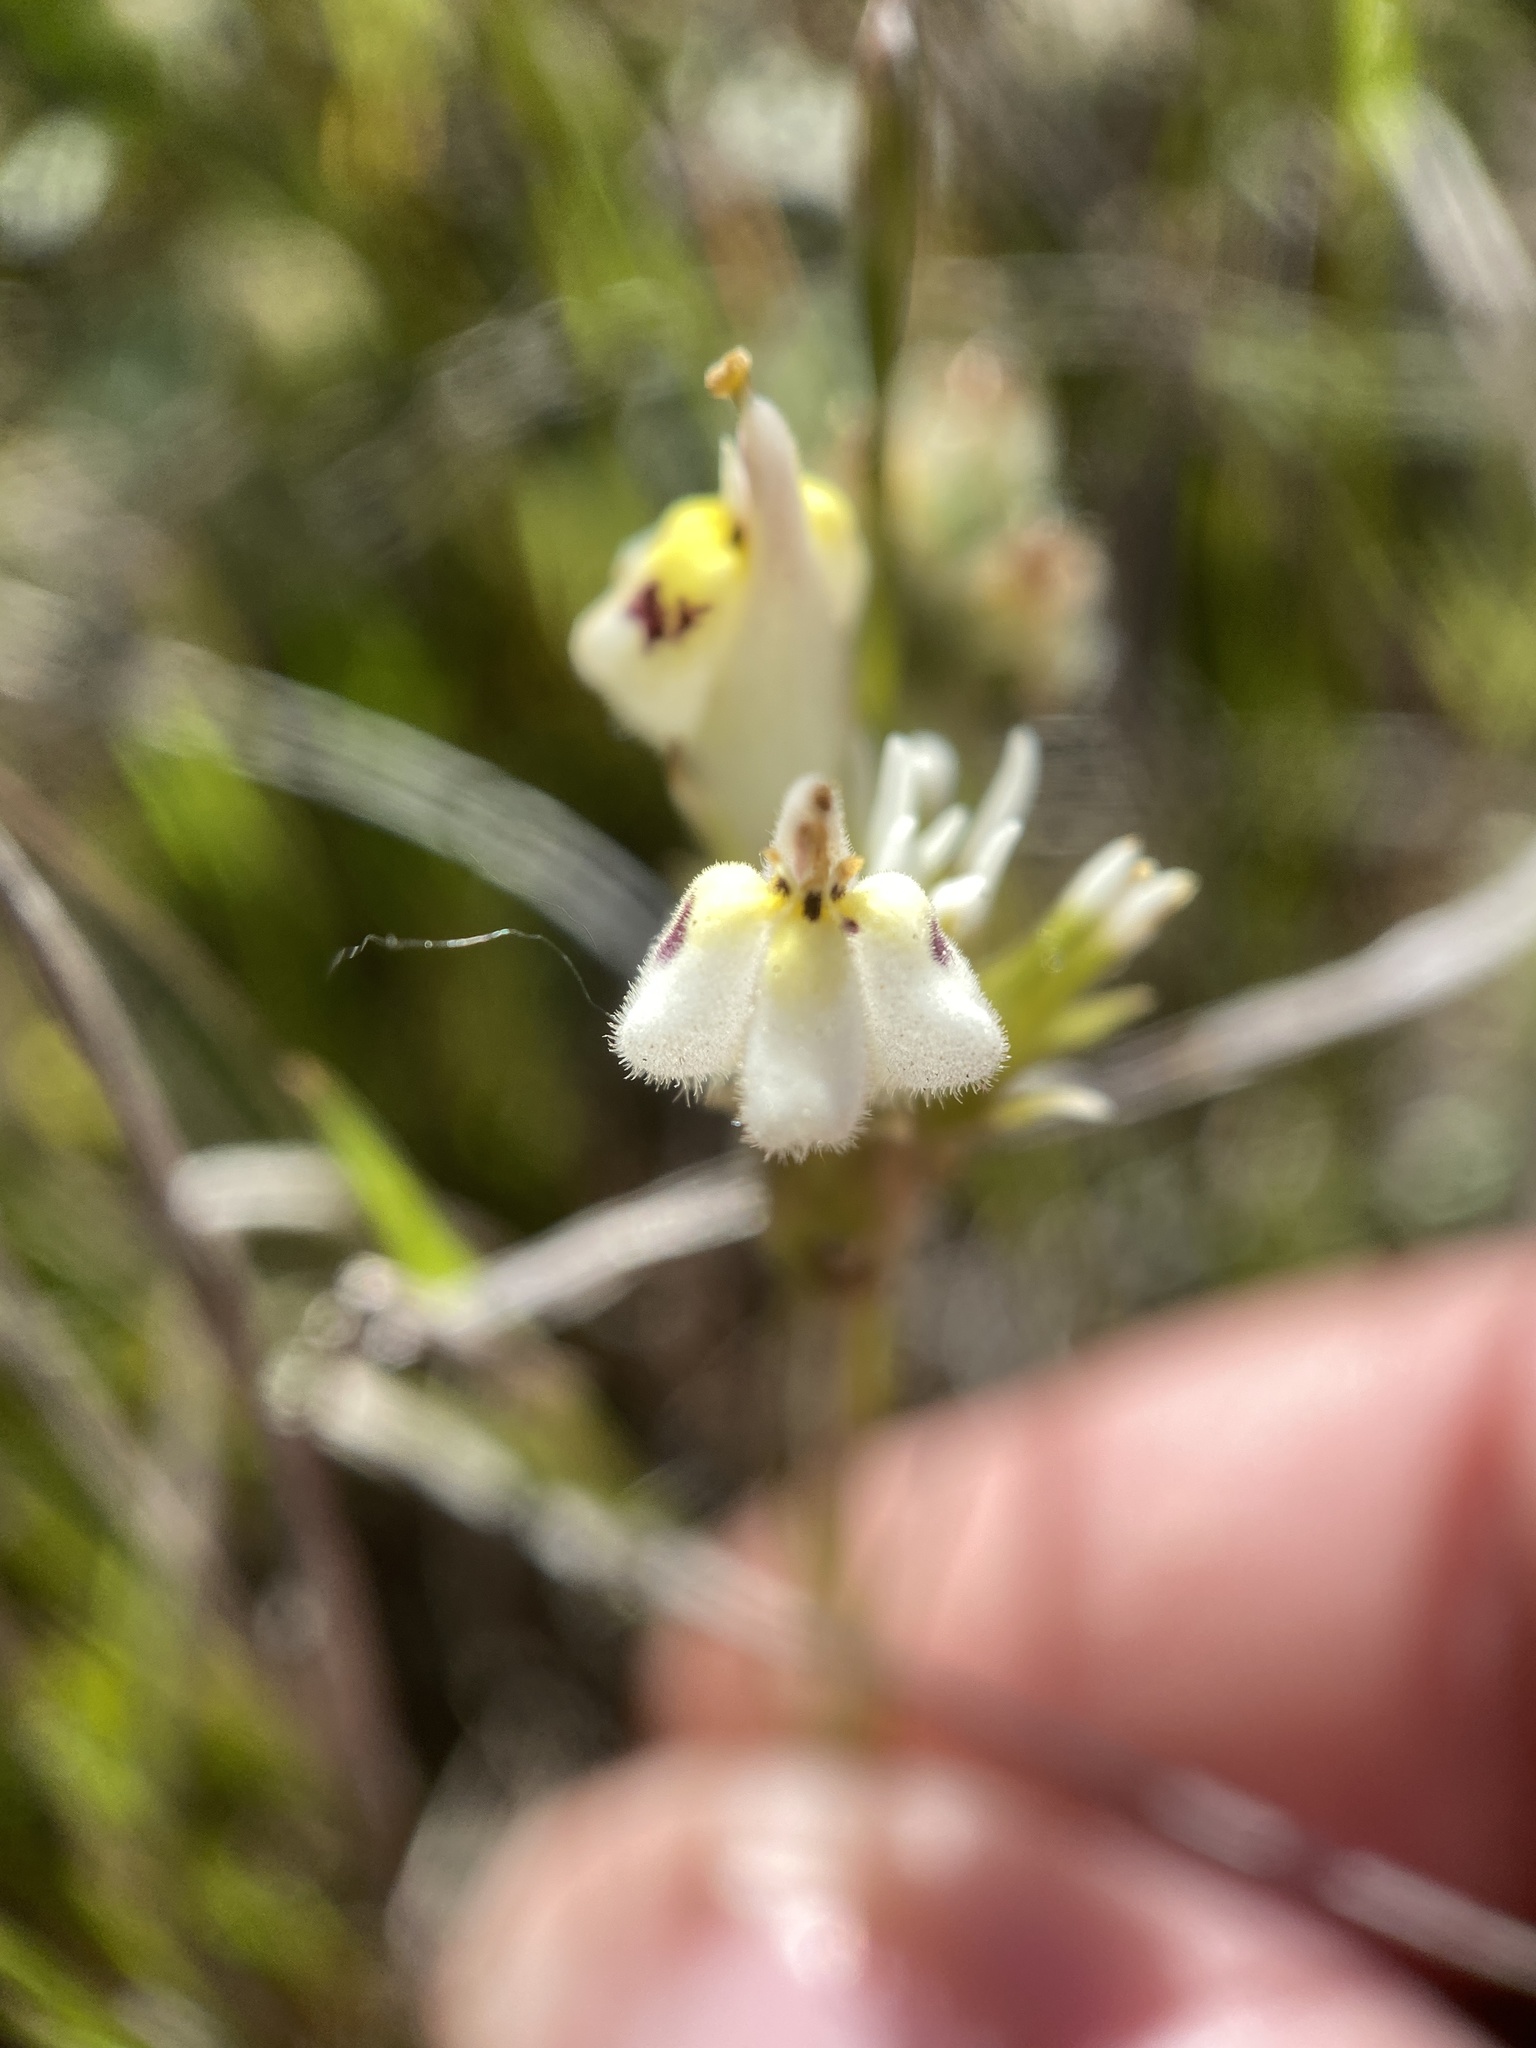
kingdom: Plantae
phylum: Tracheophyta
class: Magnoliopsida
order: Lamiales
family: Orobanchaceae
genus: Castilleja
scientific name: Castilleja densiflora
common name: Dense-flower indian paintbrush
